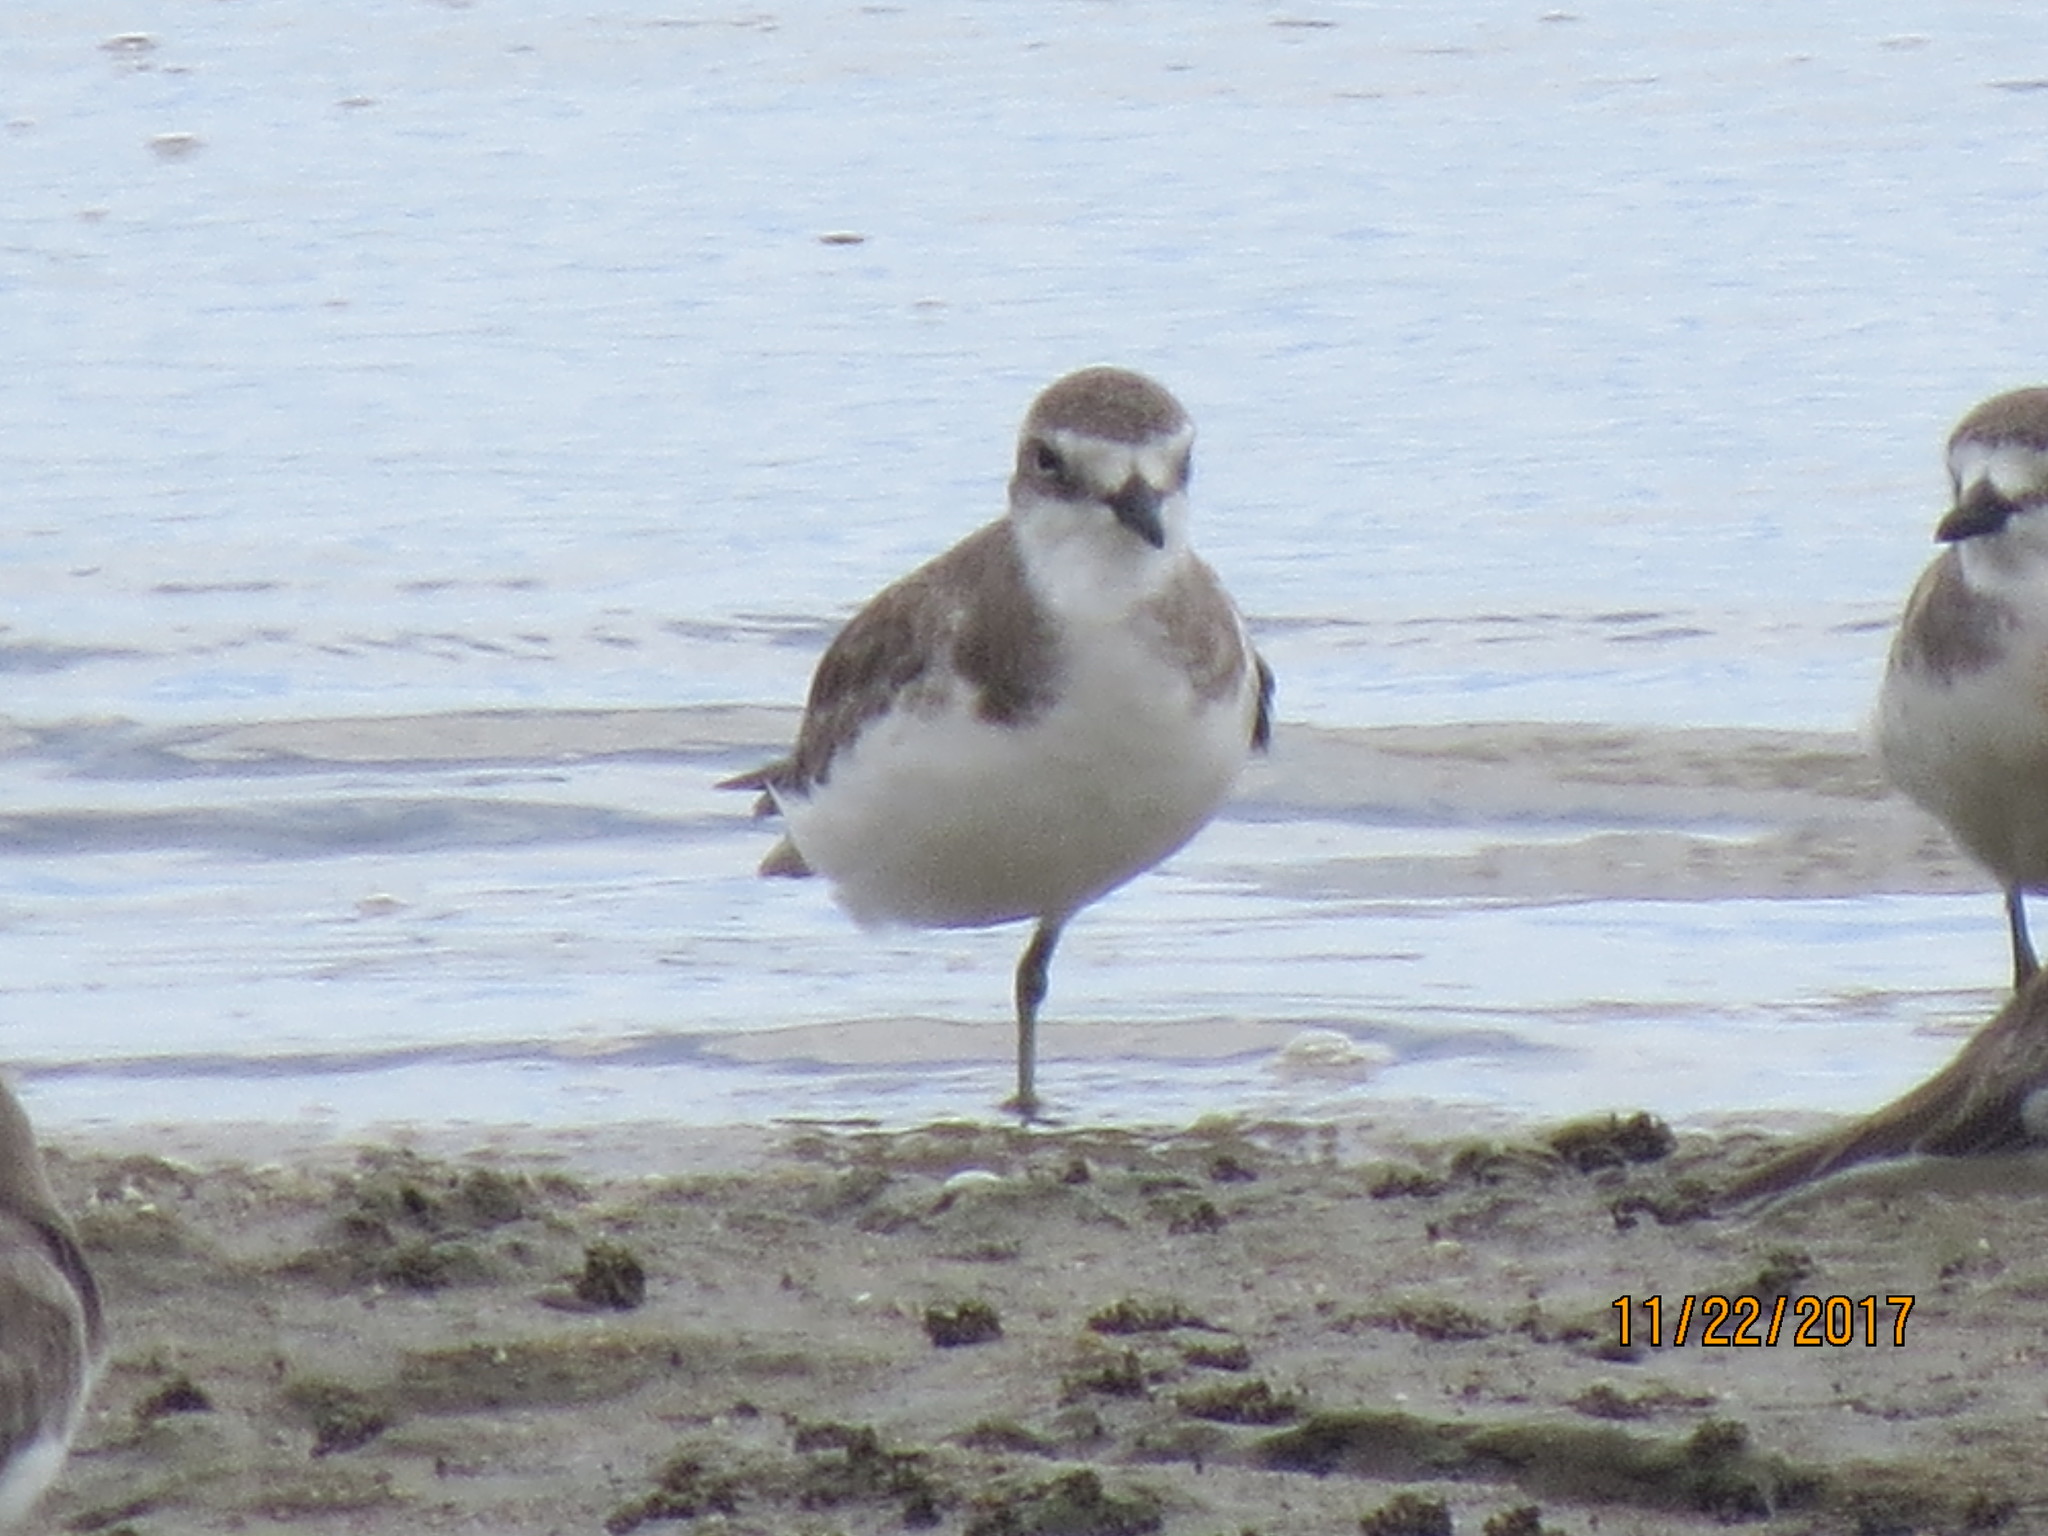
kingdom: Animalia
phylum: Chordata
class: Aves
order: Charadriiformes
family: Charadriidae
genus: Anarhynchus
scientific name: Anarhynchus
